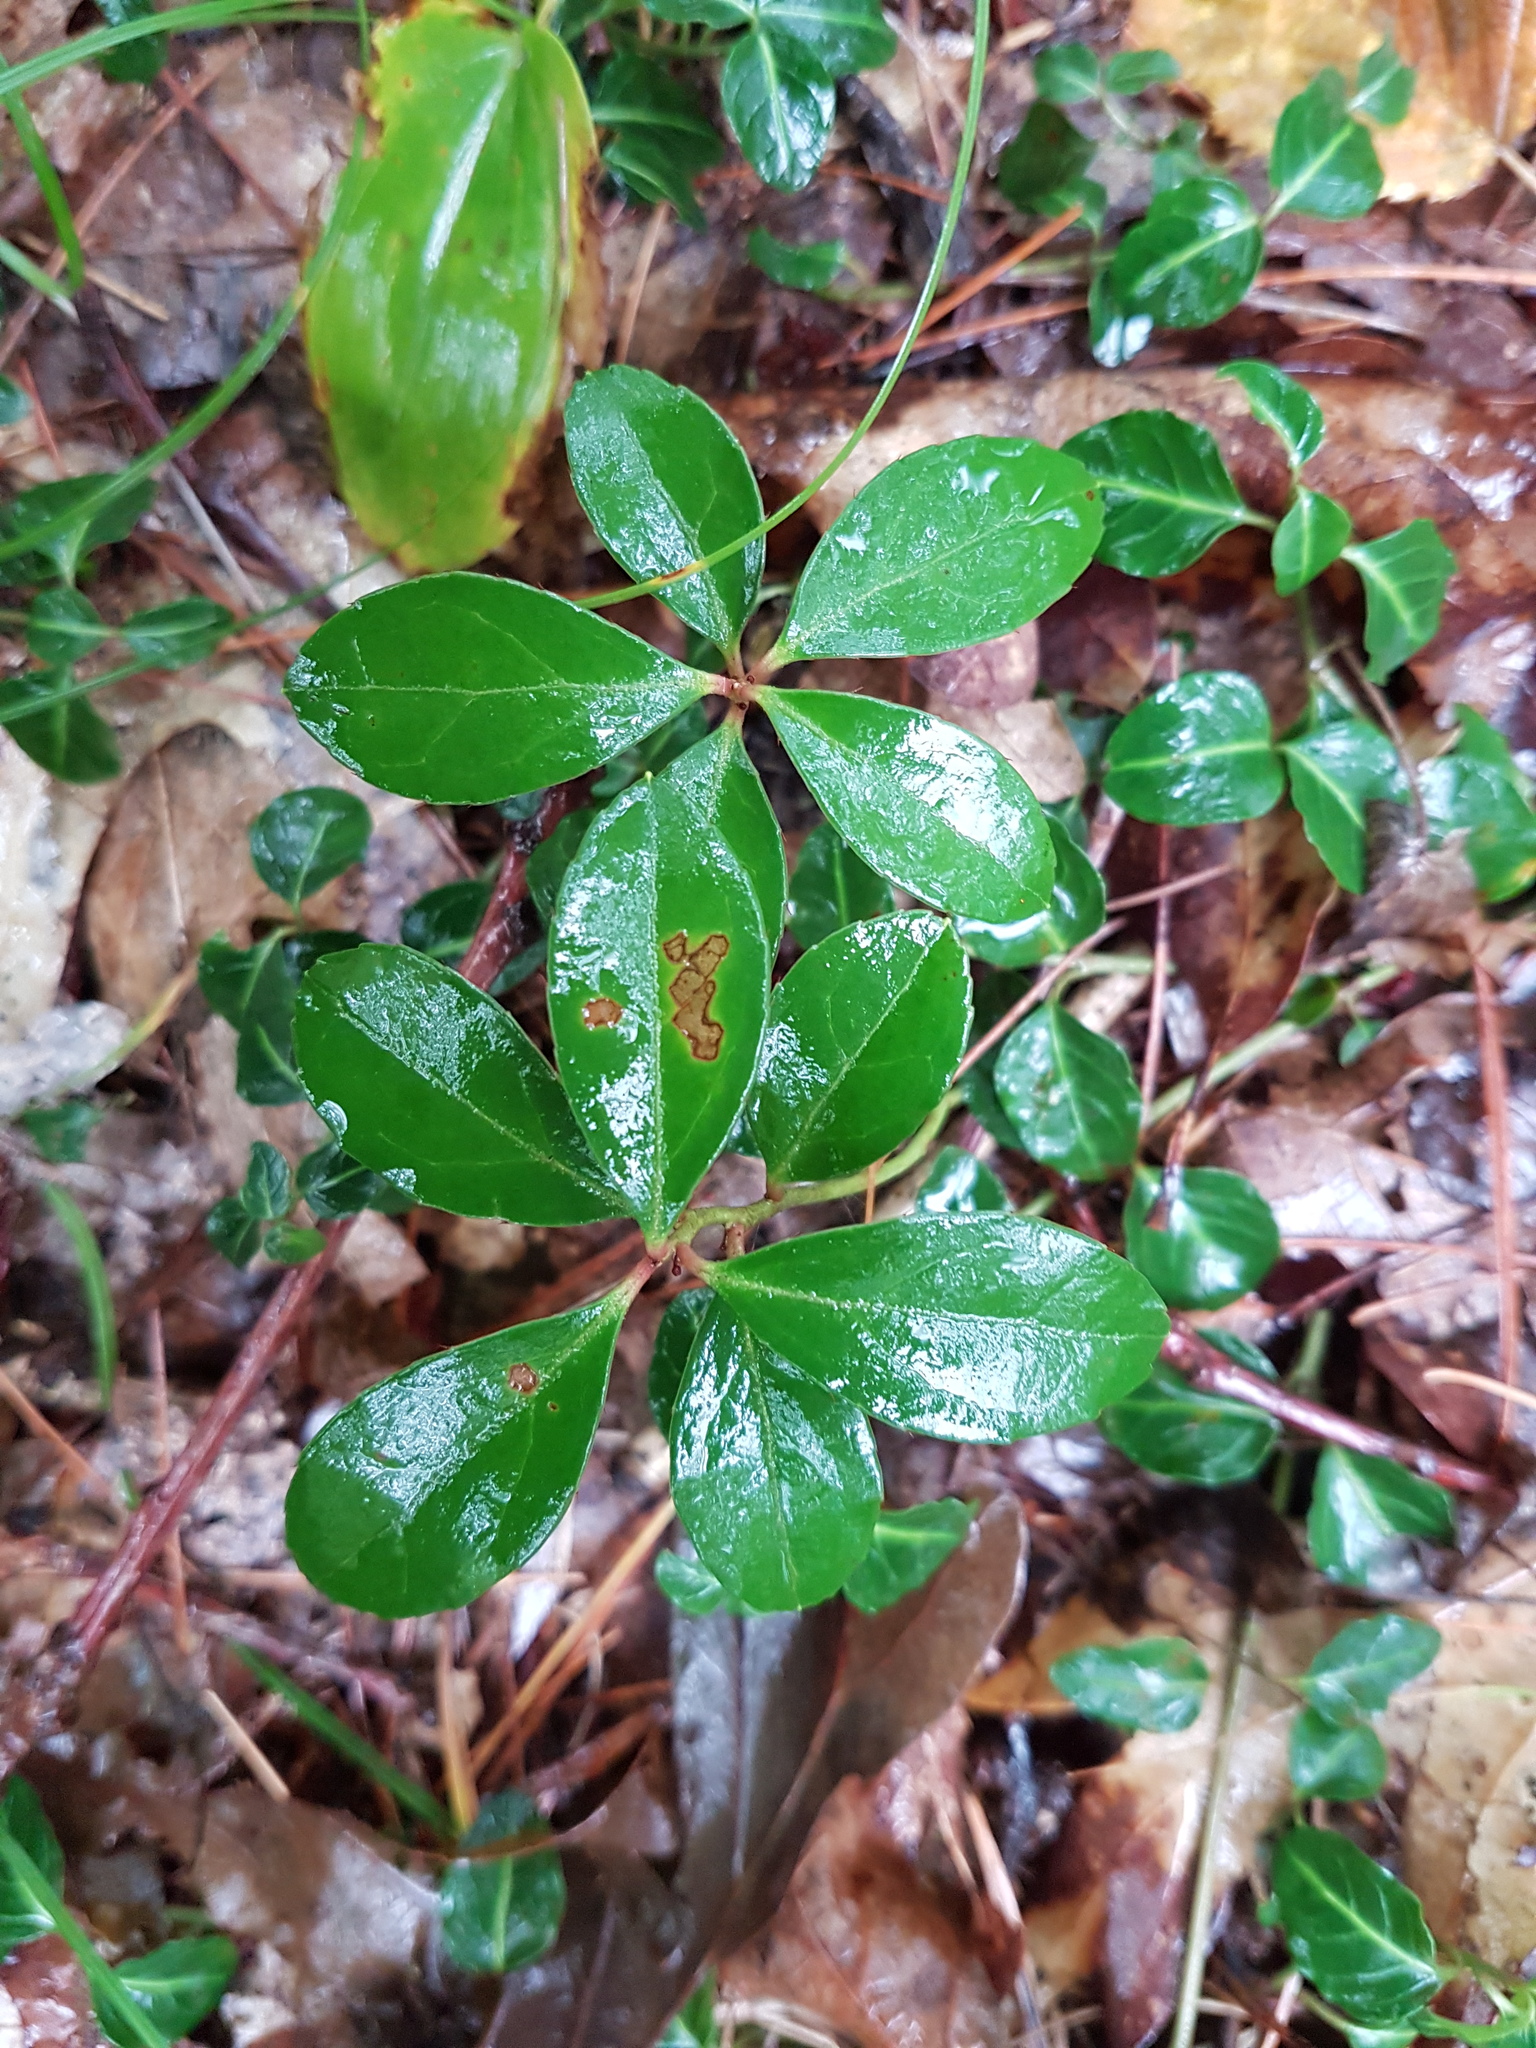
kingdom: Plantae
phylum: Tracheophyta
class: Magnoliopsida
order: Ericales
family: Ericaceae
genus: Gaultheria
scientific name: Gaultheria procumbens
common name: Checkerberry
